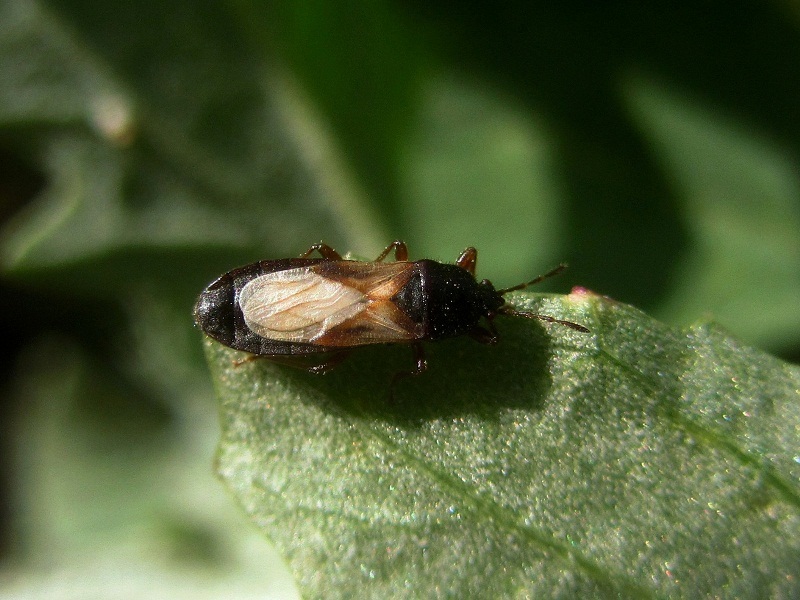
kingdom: Animalia
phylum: Arthropoda
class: Insecta
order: Hemiptera
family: Blissidae
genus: Dimorphopterus
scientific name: Dimorphopterus blissoides
